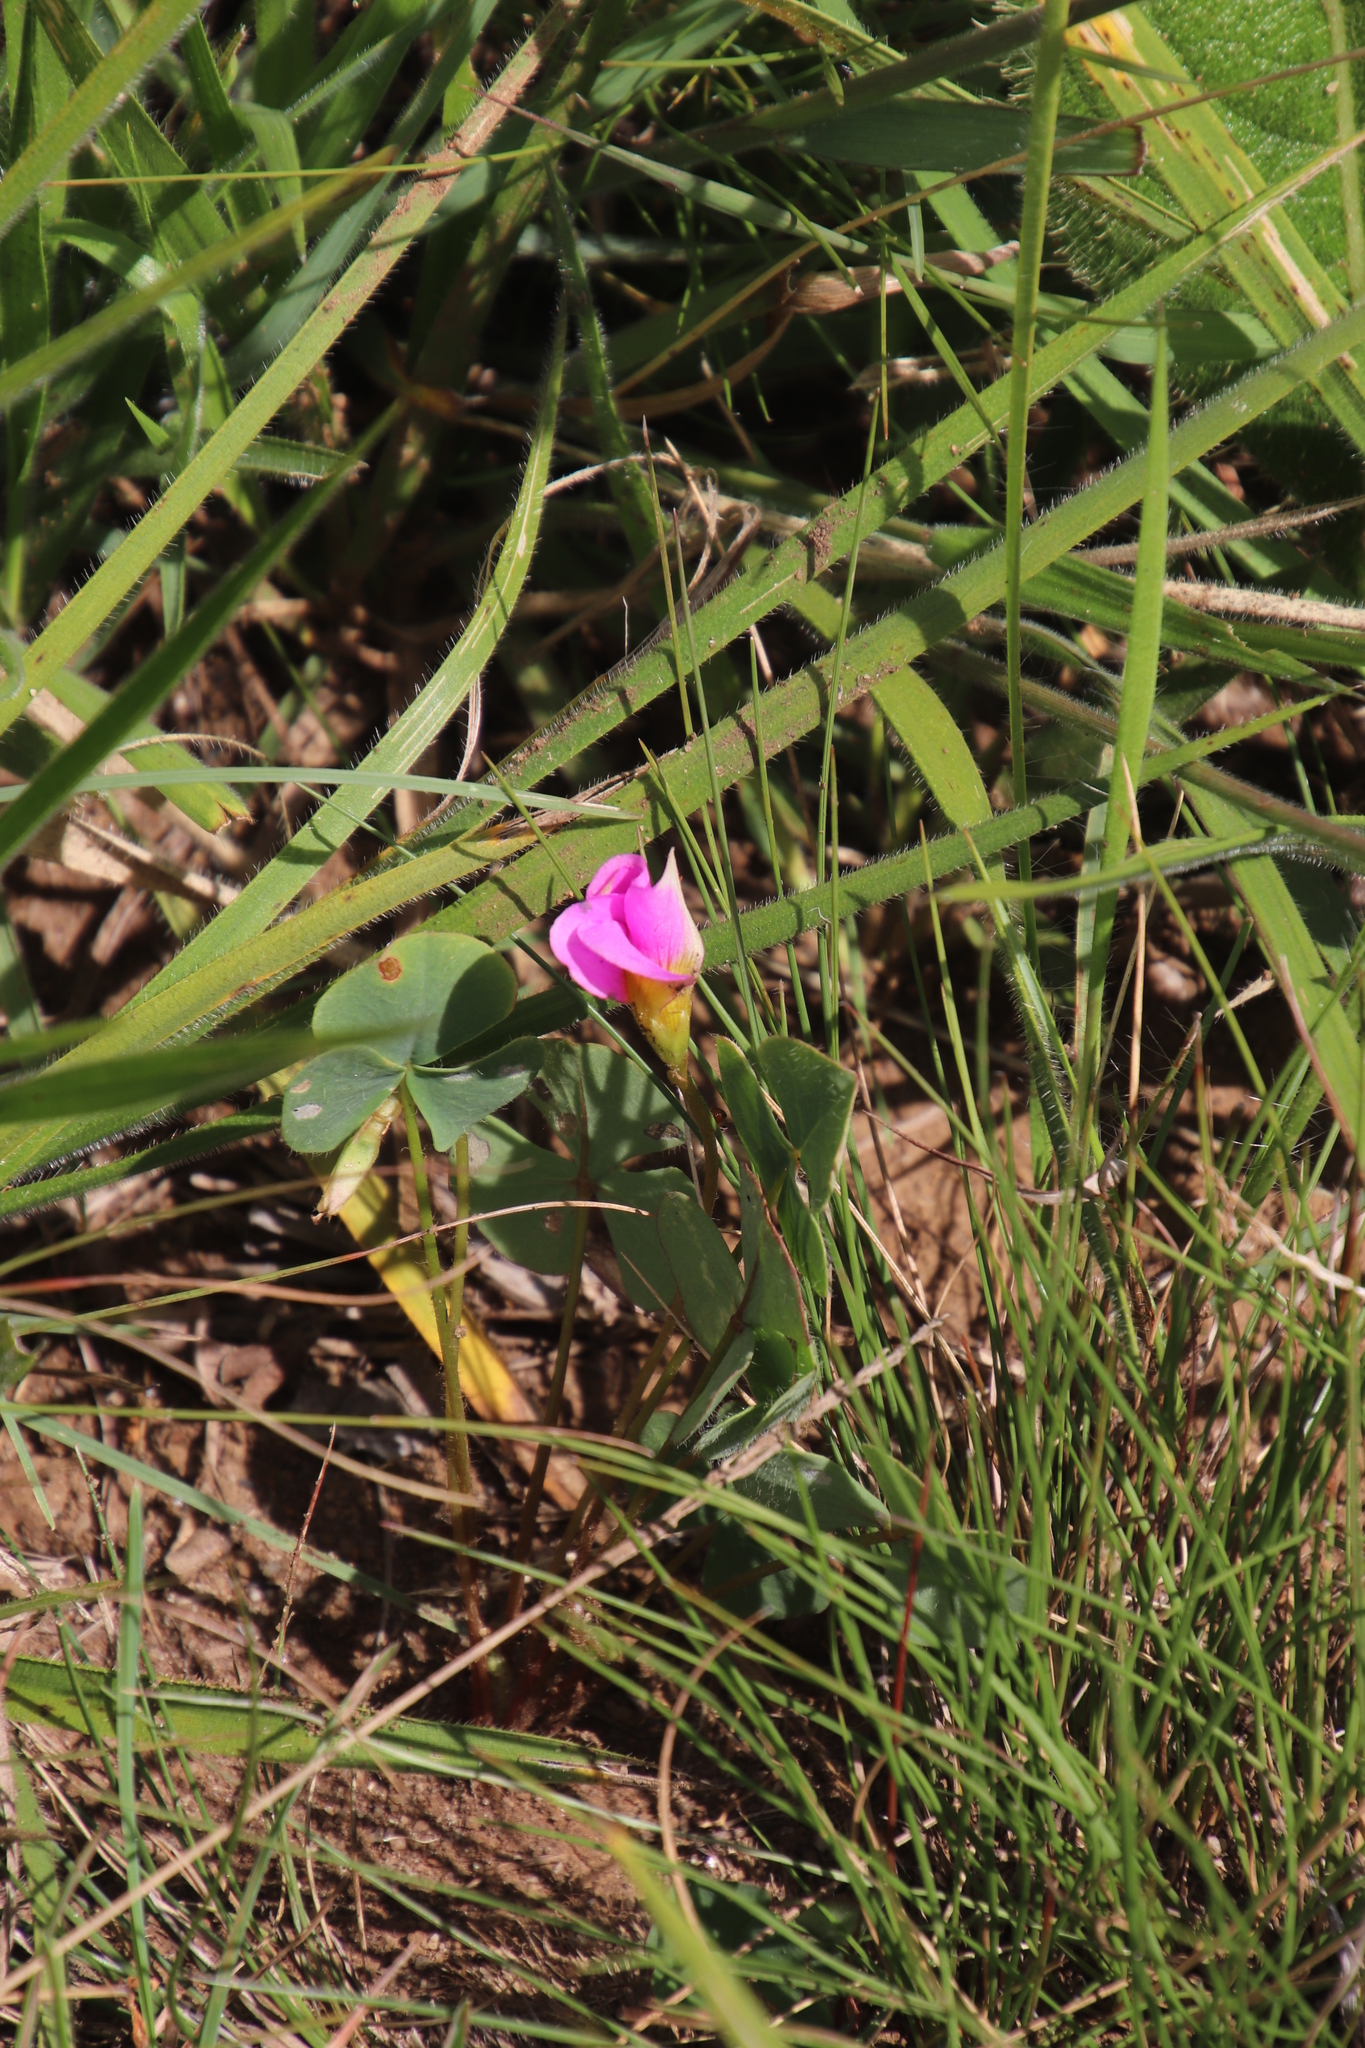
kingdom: Plantae
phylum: Tracheophyta
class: Magnoliopsida
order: Oxalidales
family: Oxalidaceae
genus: Oxalis
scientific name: Oxalis obliquifolia
